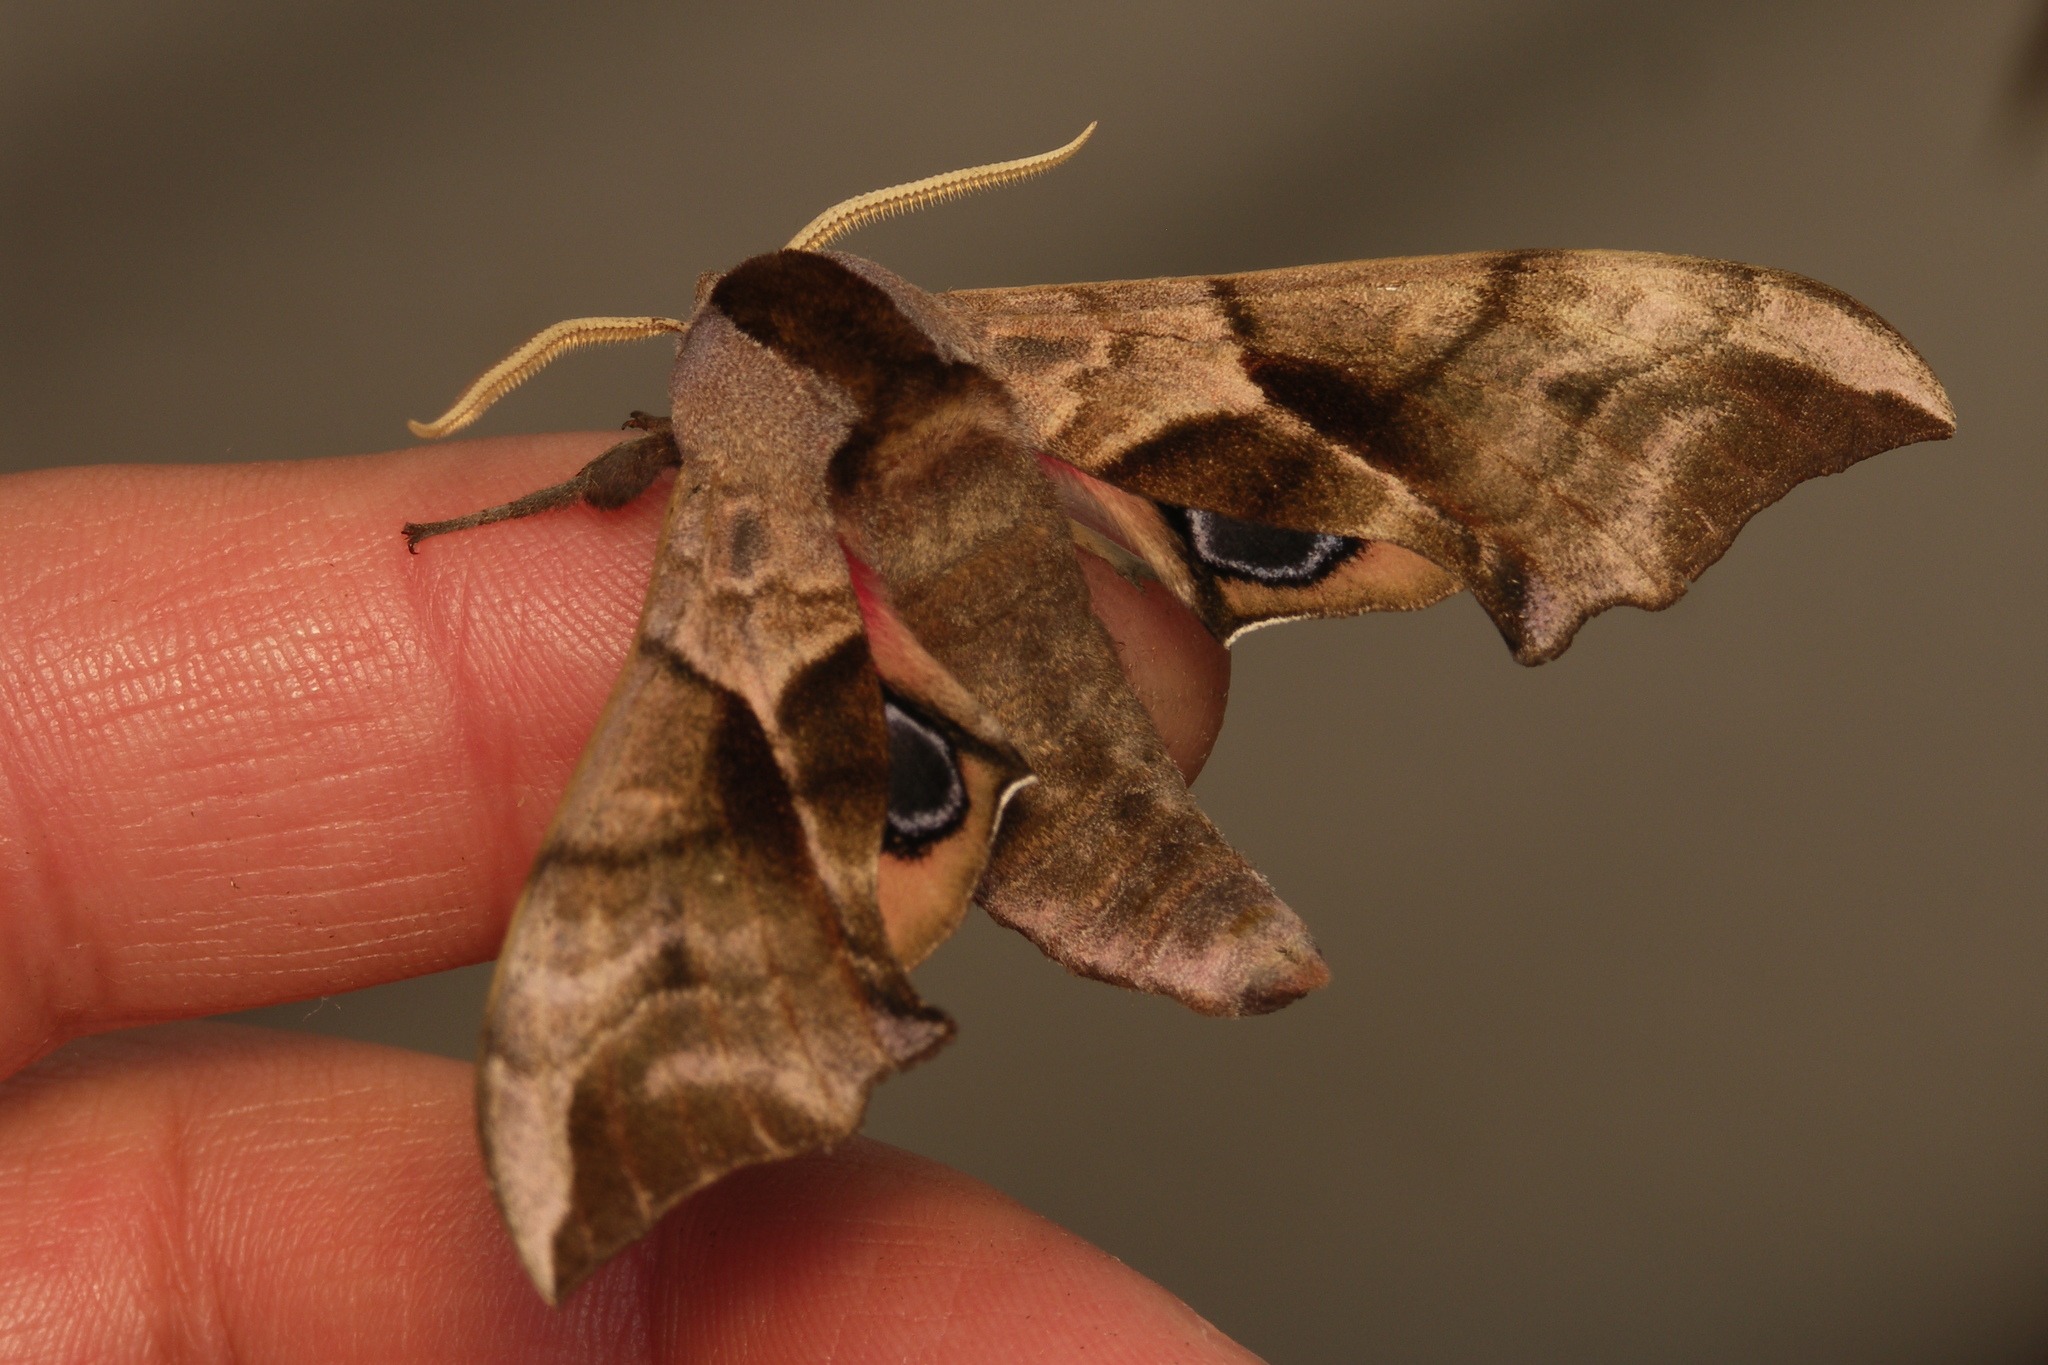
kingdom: Animalia
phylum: Arthropoda
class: Insecta
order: Lepidoptera
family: Sphingidae
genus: Smerinthus
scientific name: Smerinthus ocellata
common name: Eyed hawk-moth
